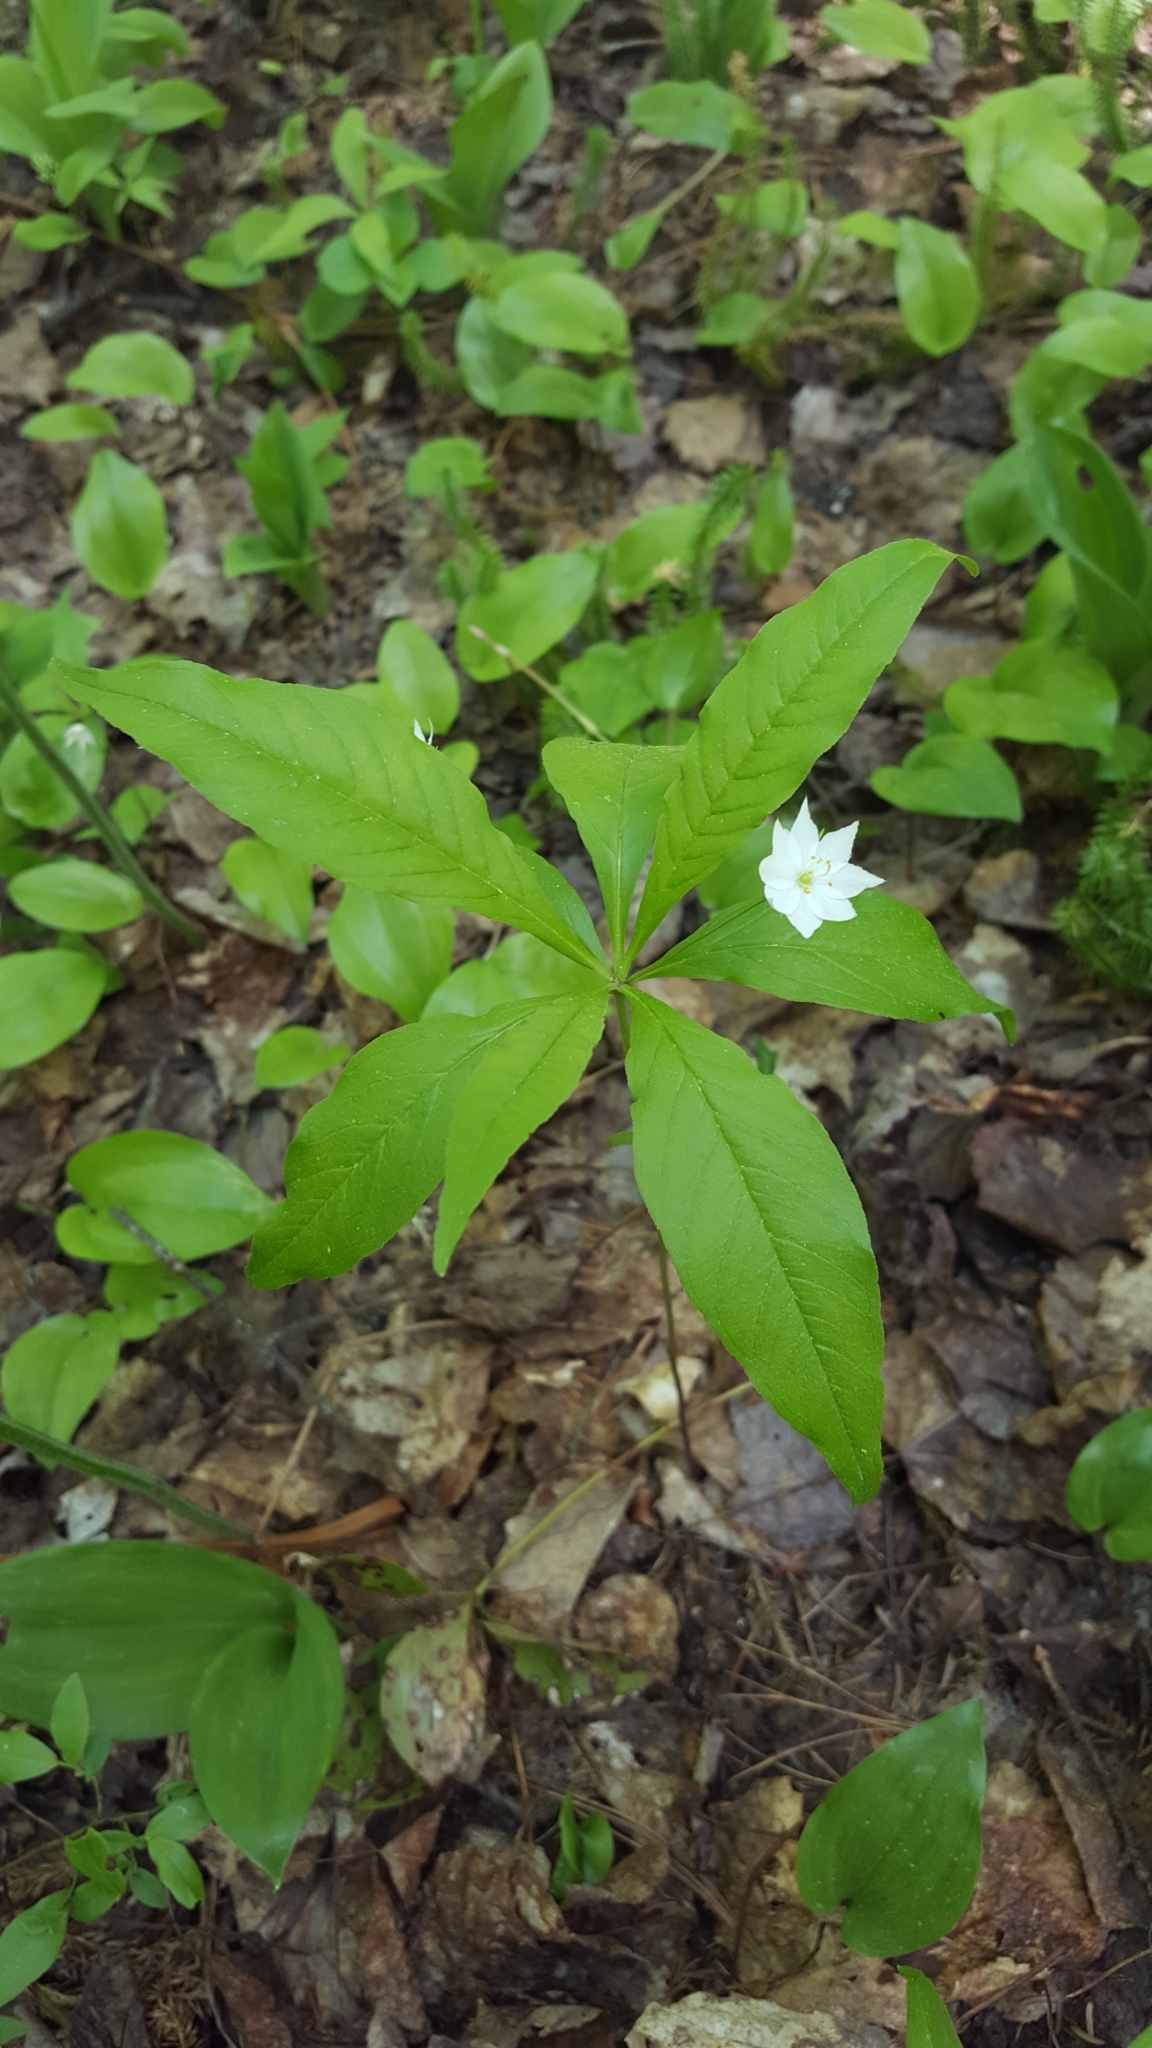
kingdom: Plantae
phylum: Tracheophyta
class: Magnoliopsida
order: Ericales
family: Primulaceae
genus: Lysimachia
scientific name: Lysimachia borealis
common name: American starflower
